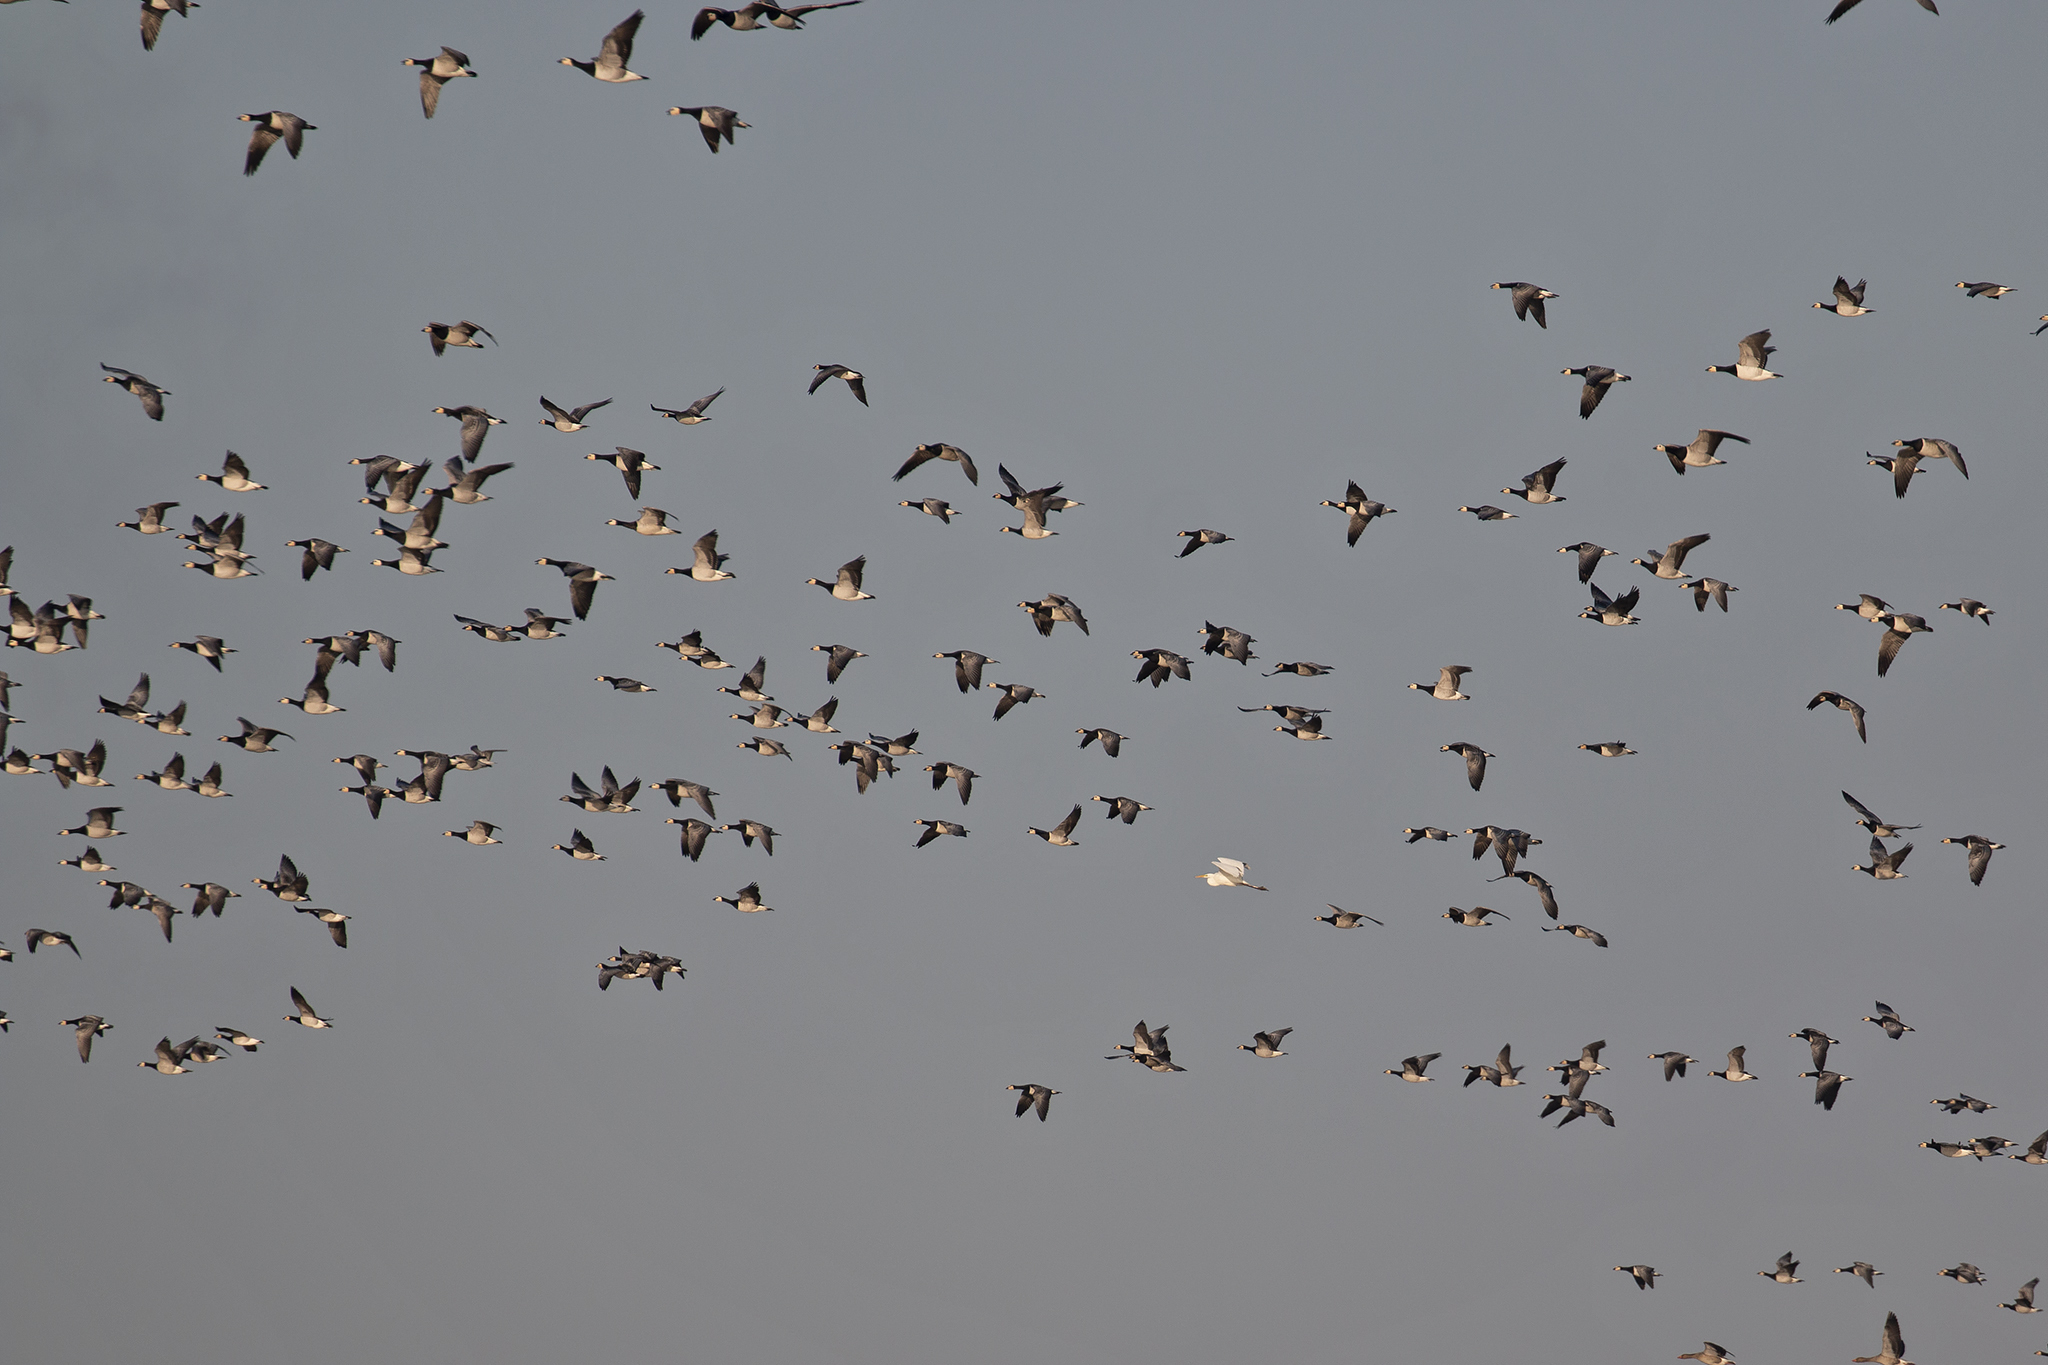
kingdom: Animalia
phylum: Chordata
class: Aves
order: Pelecaniformes
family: Ardeidae
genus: Ardea
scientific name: Ardea alba
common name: Great egret
